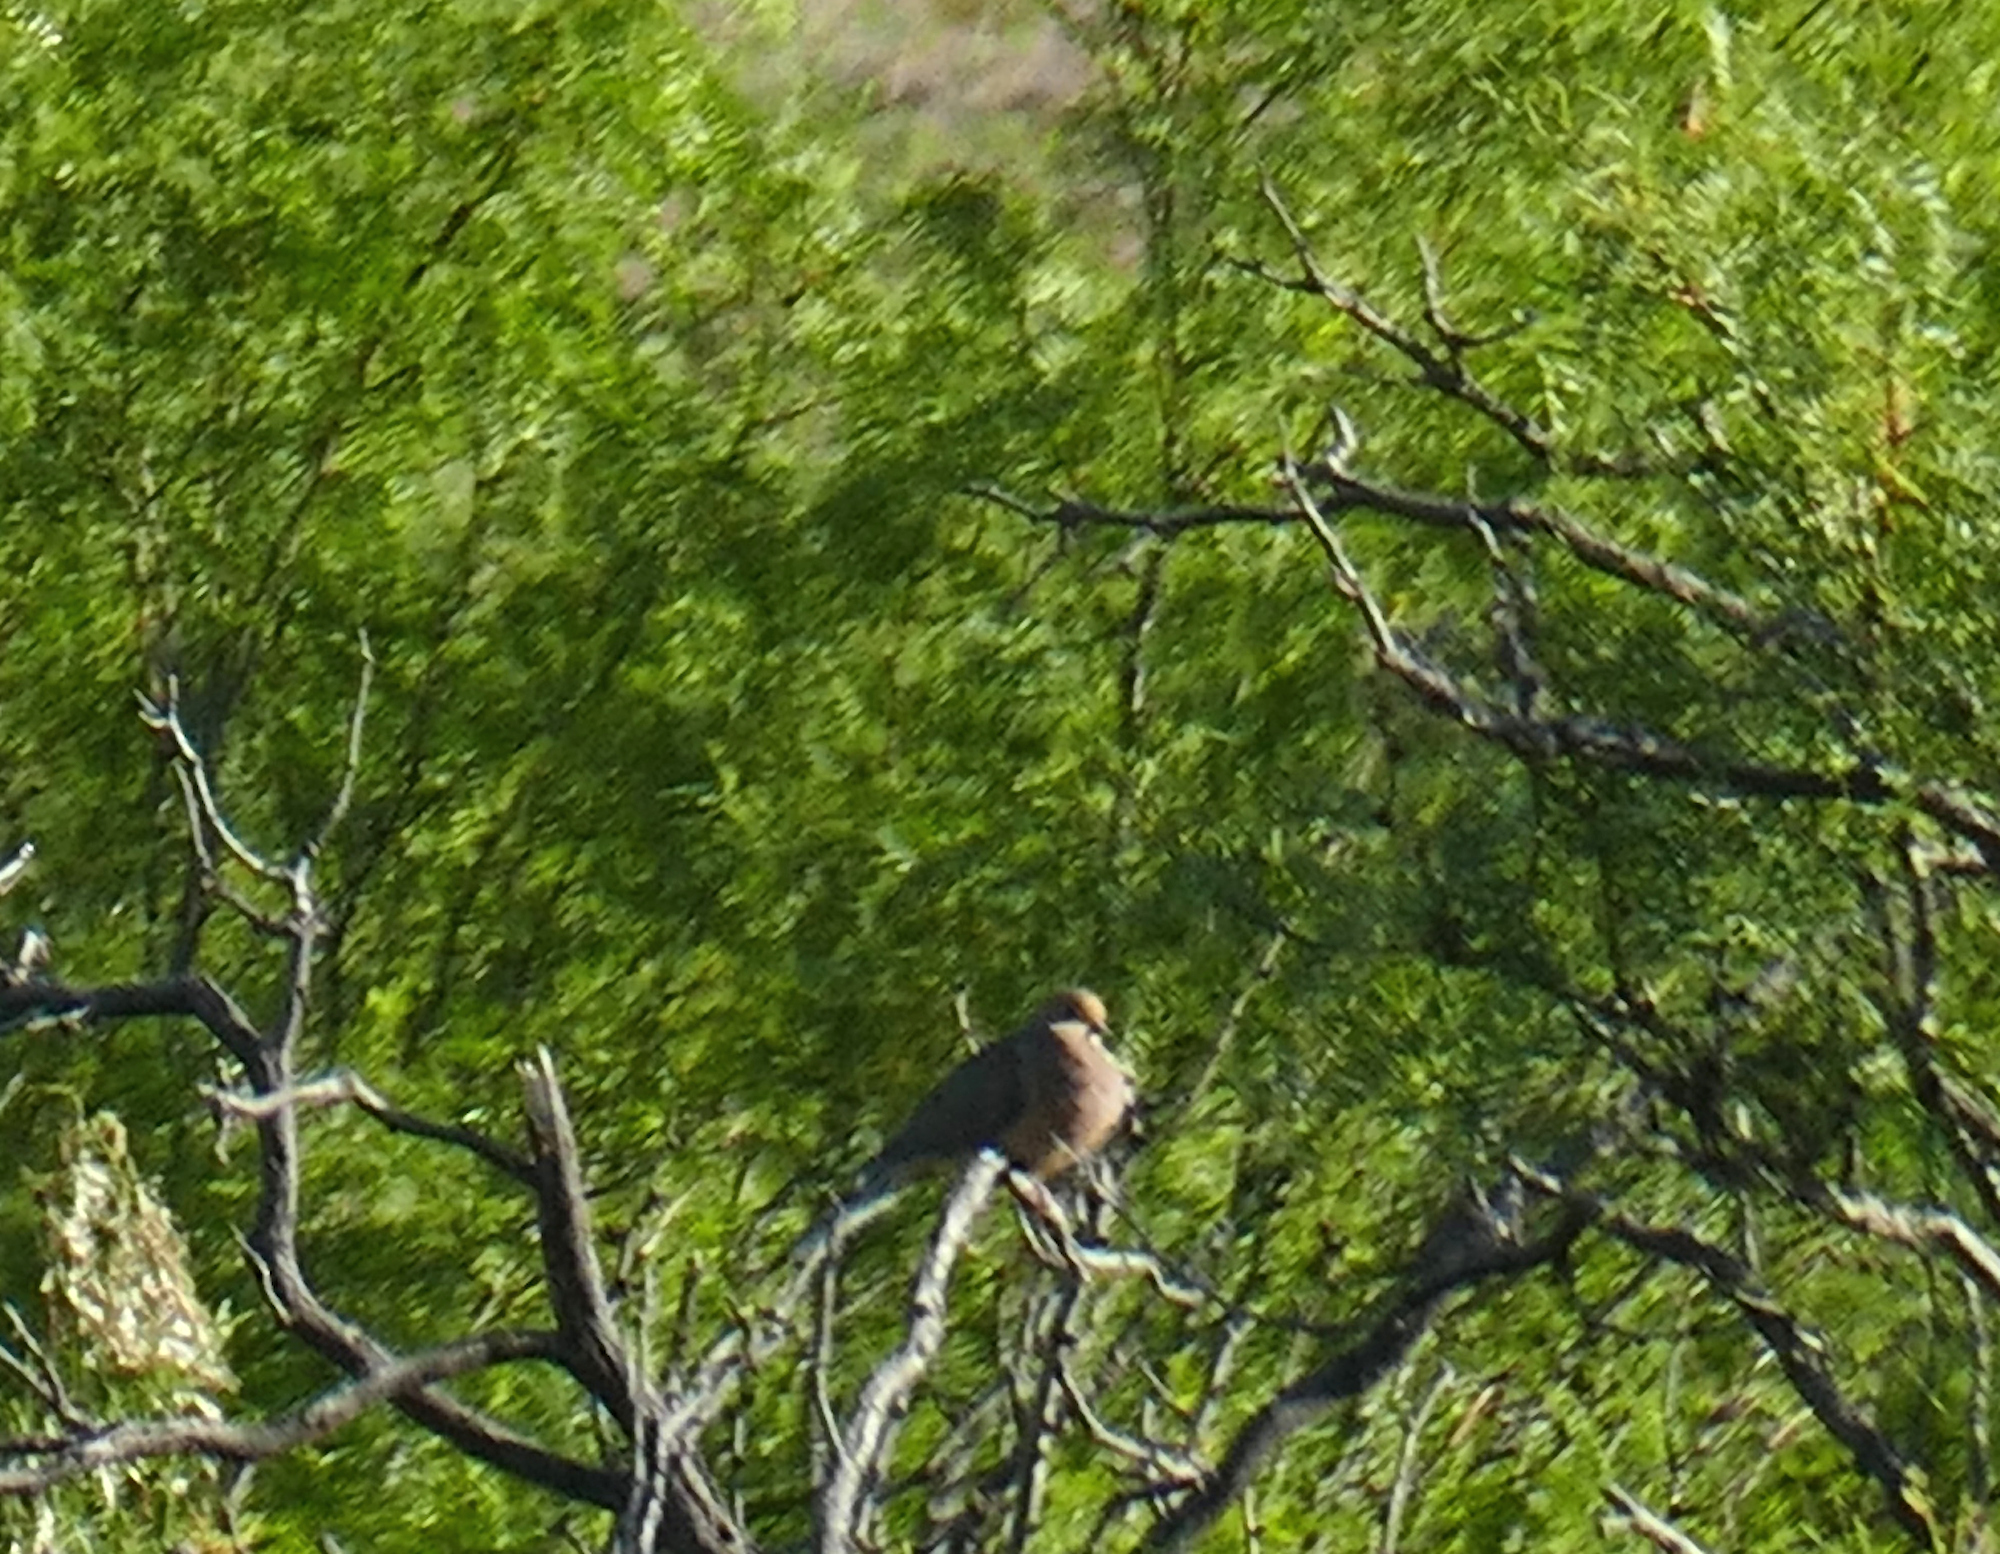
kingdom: Animalia
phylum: Chordata
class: Aves
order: Columbiformes
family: Columbidae
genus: Zenaida
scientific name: Zenaida macroura
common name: Mourning dove
